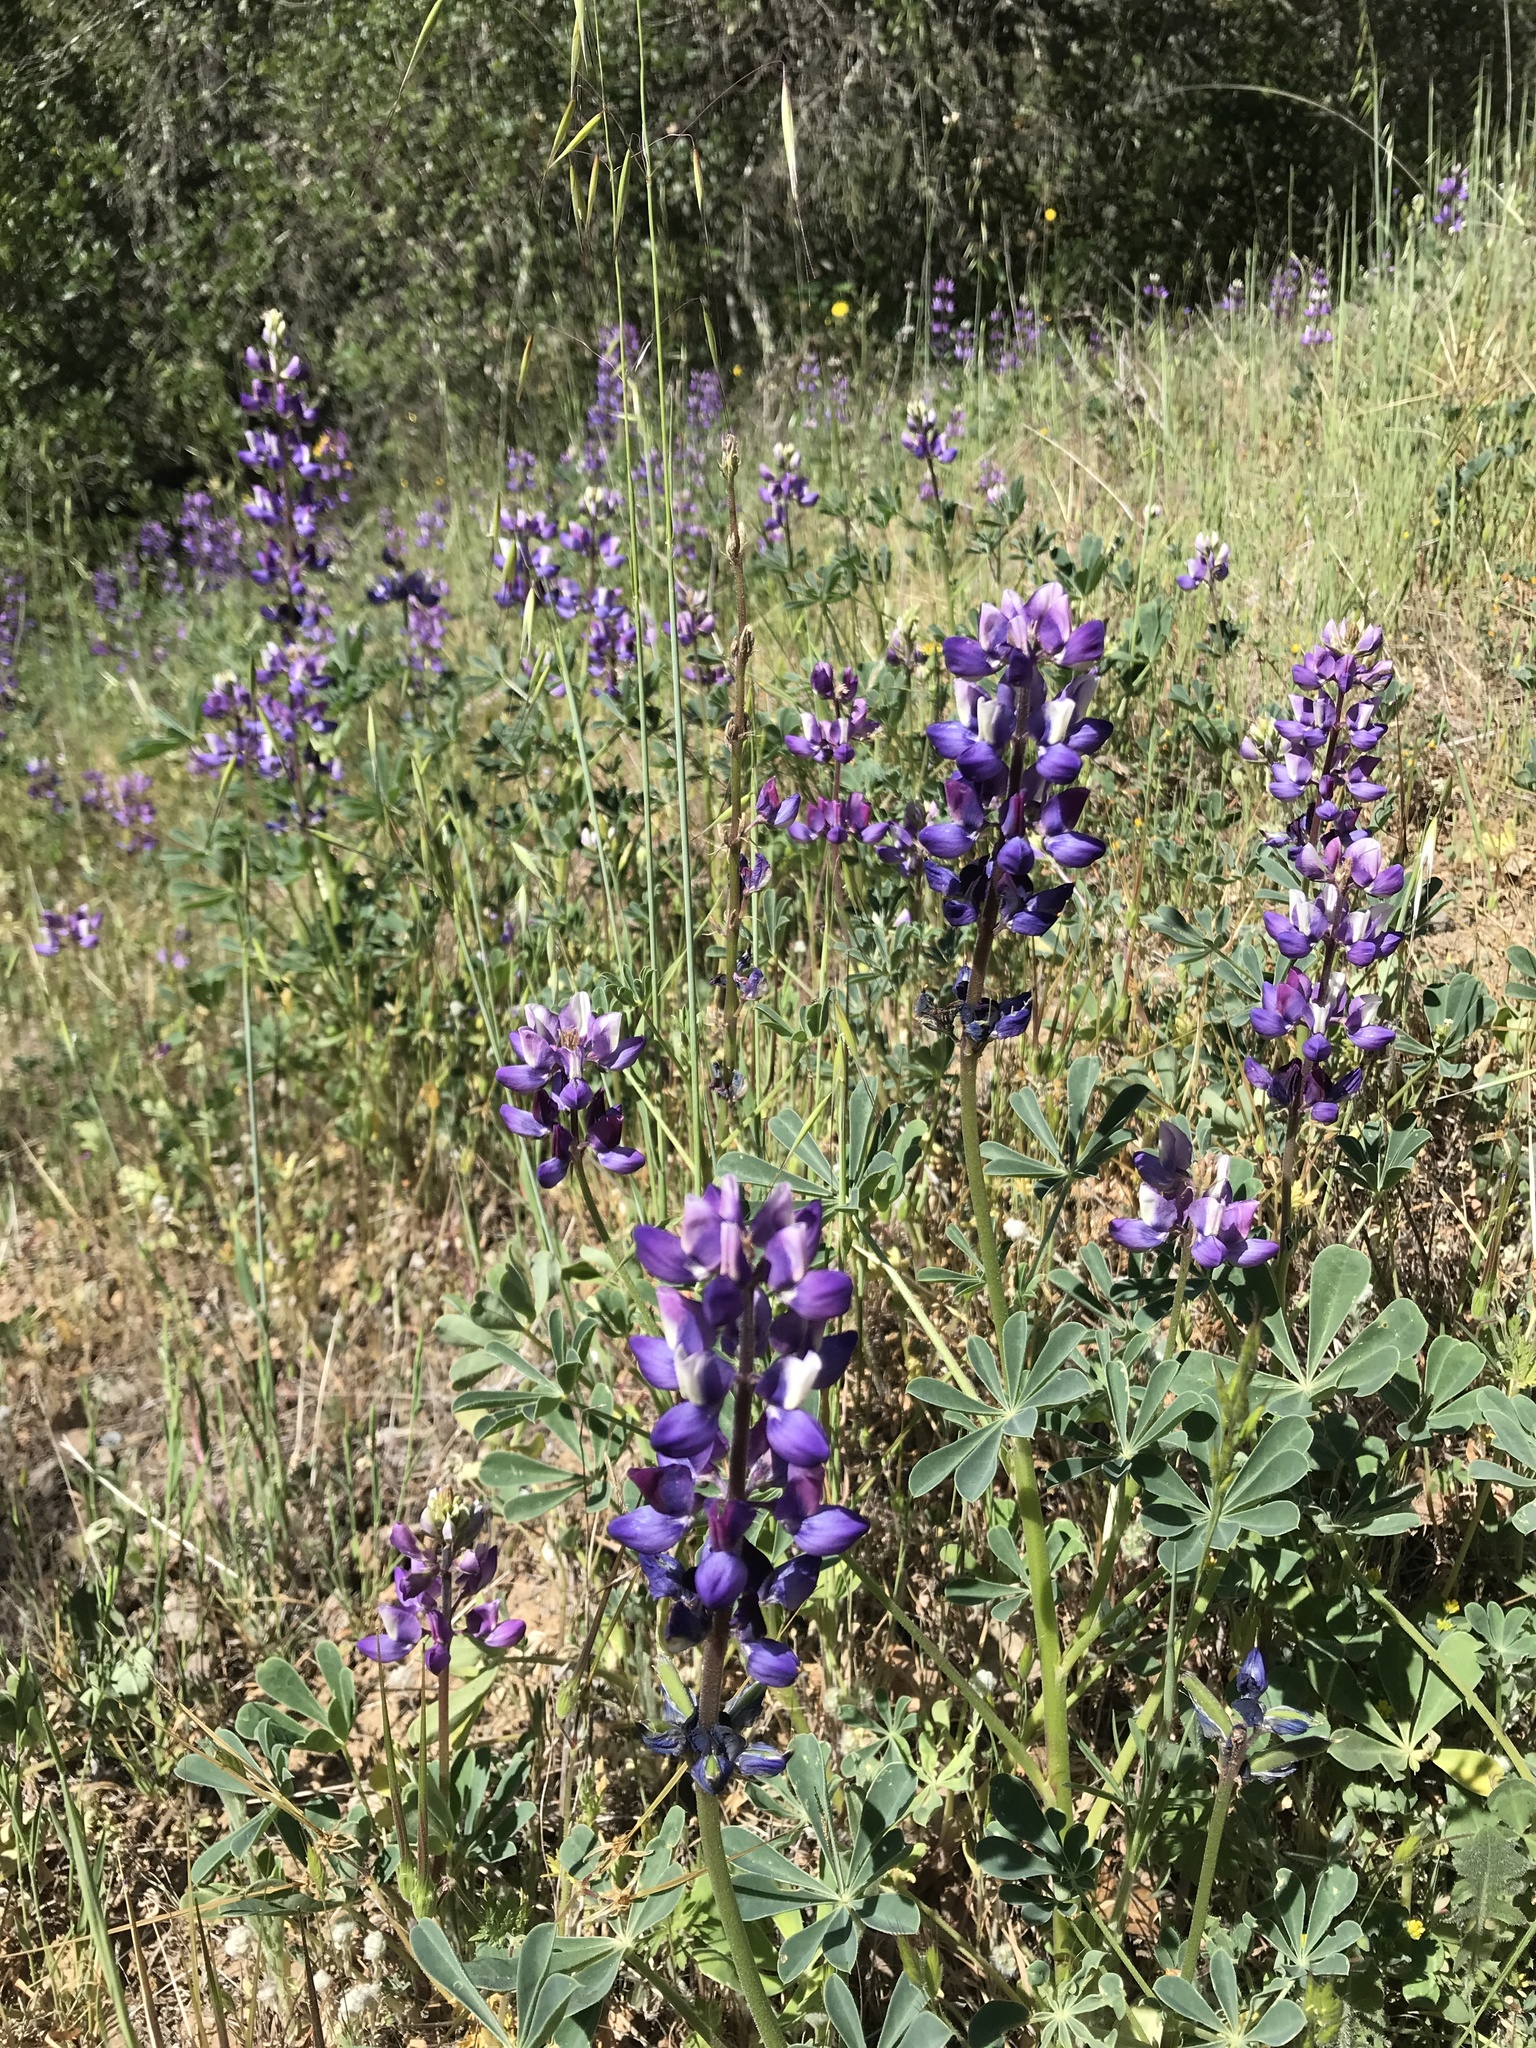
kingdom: Plantae
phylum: Tracheophyta
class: Magnoliopsida
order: Fabales
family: Fabaceae
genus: Lupinus
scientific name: Lupinus succulentus
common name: Arroyo lupine
